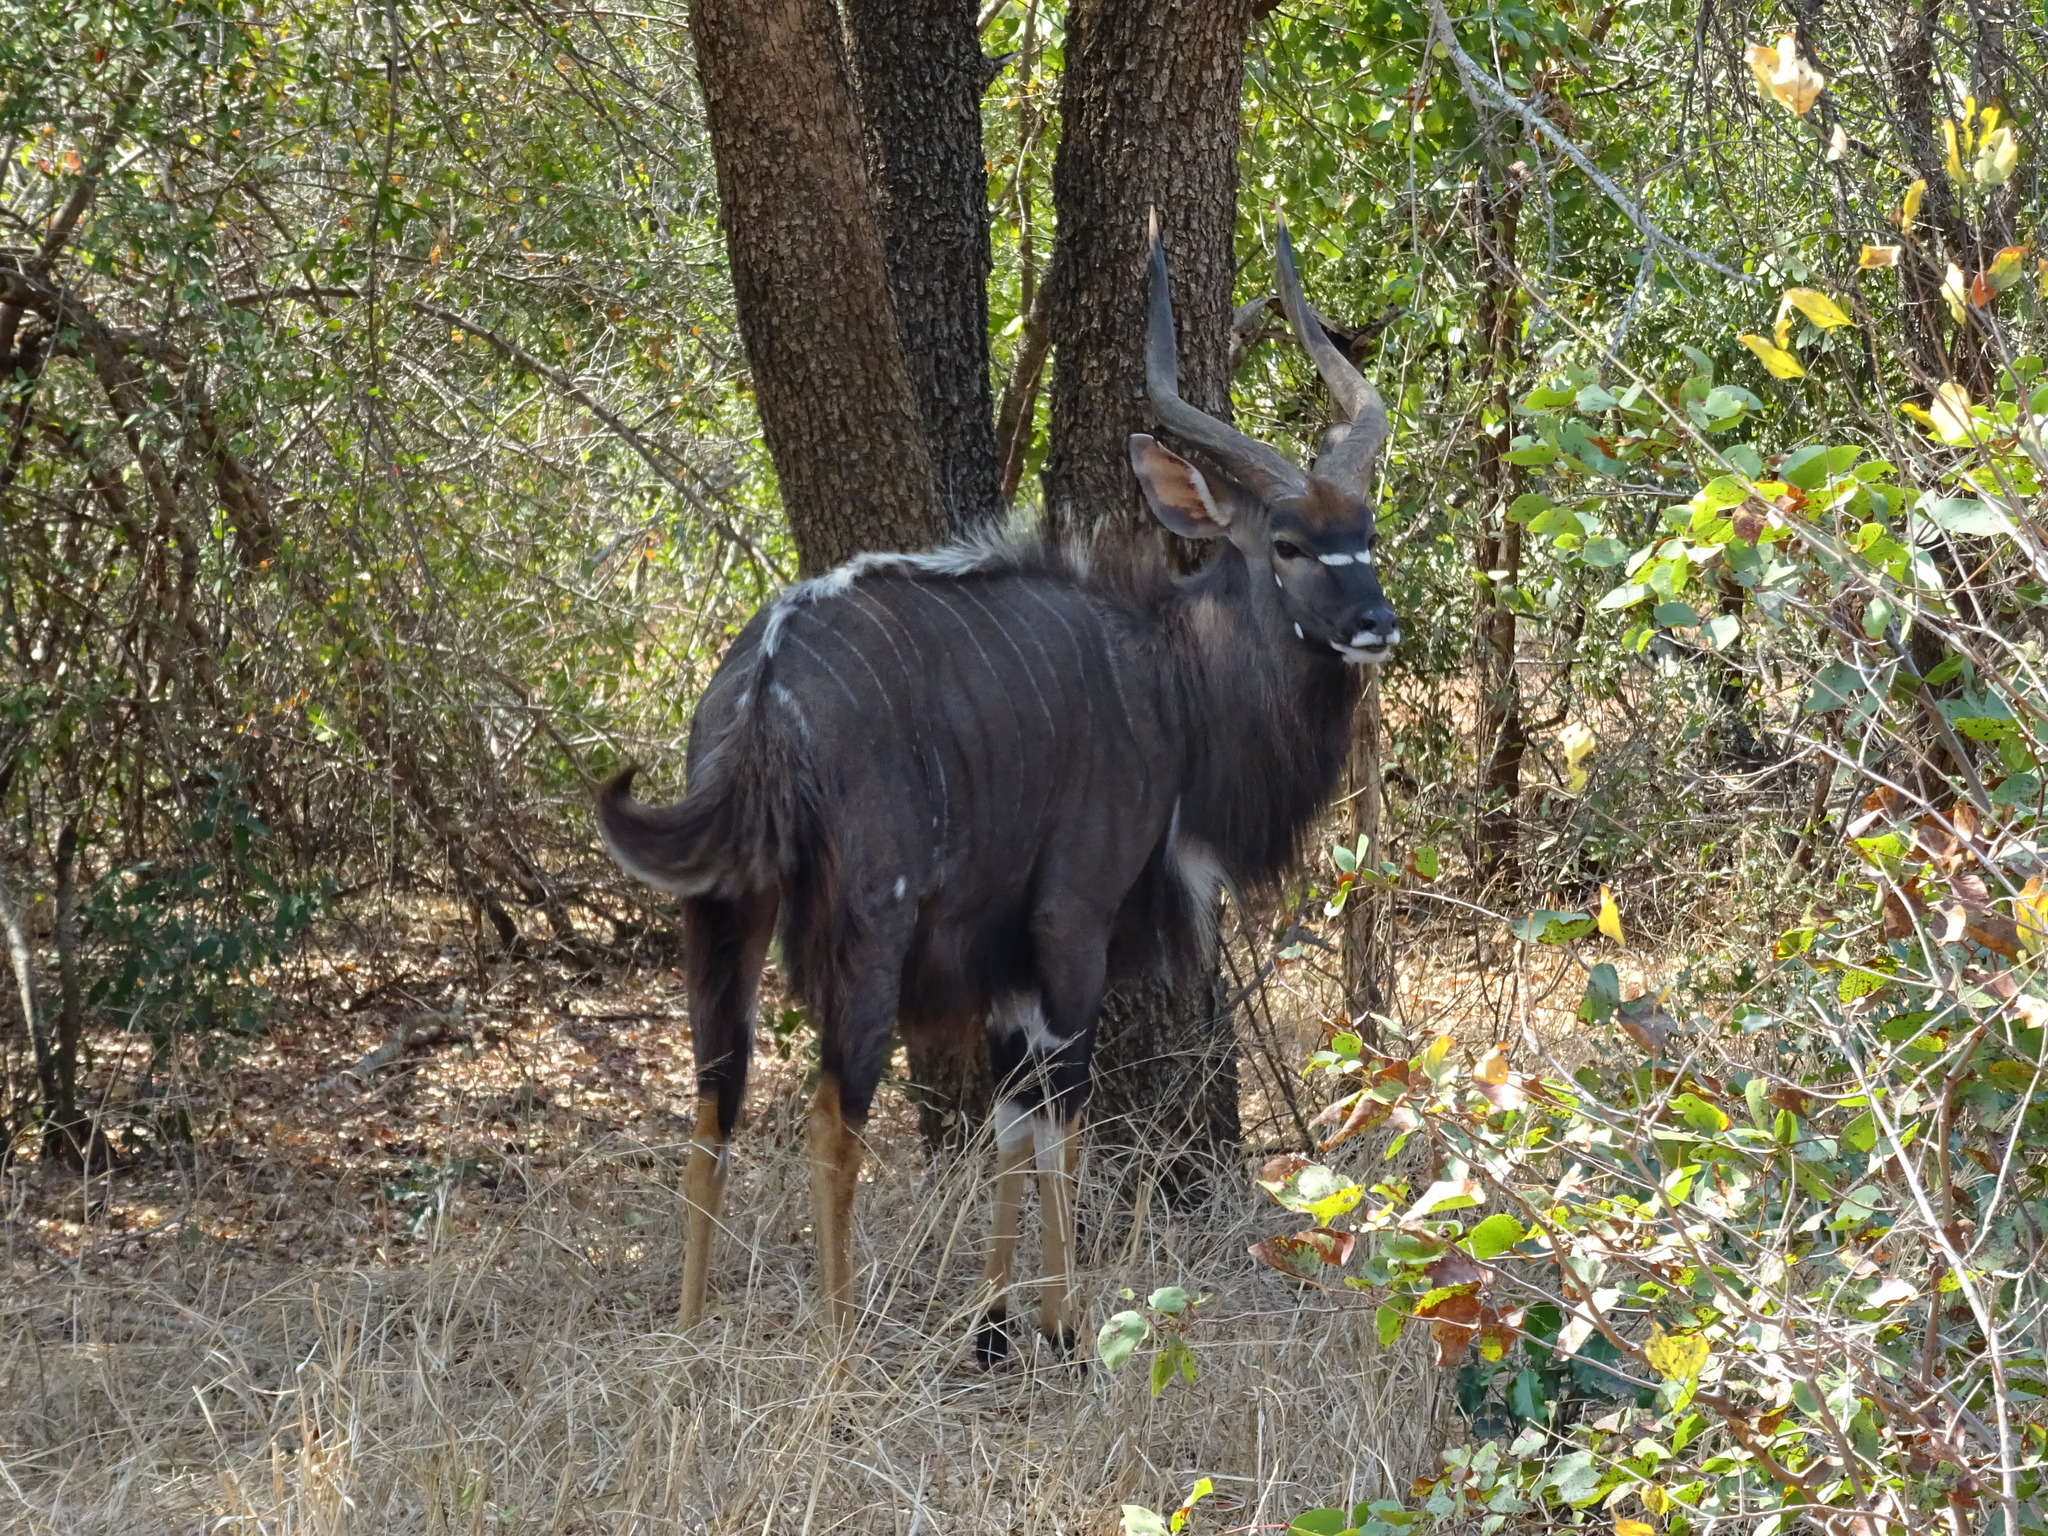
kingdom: Animalia
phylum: Chordata
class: Mammalia
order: Artiodactyla
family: Bovidae
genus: Tragelaphus
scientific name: Tragelaphus angasii
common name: Nyala
